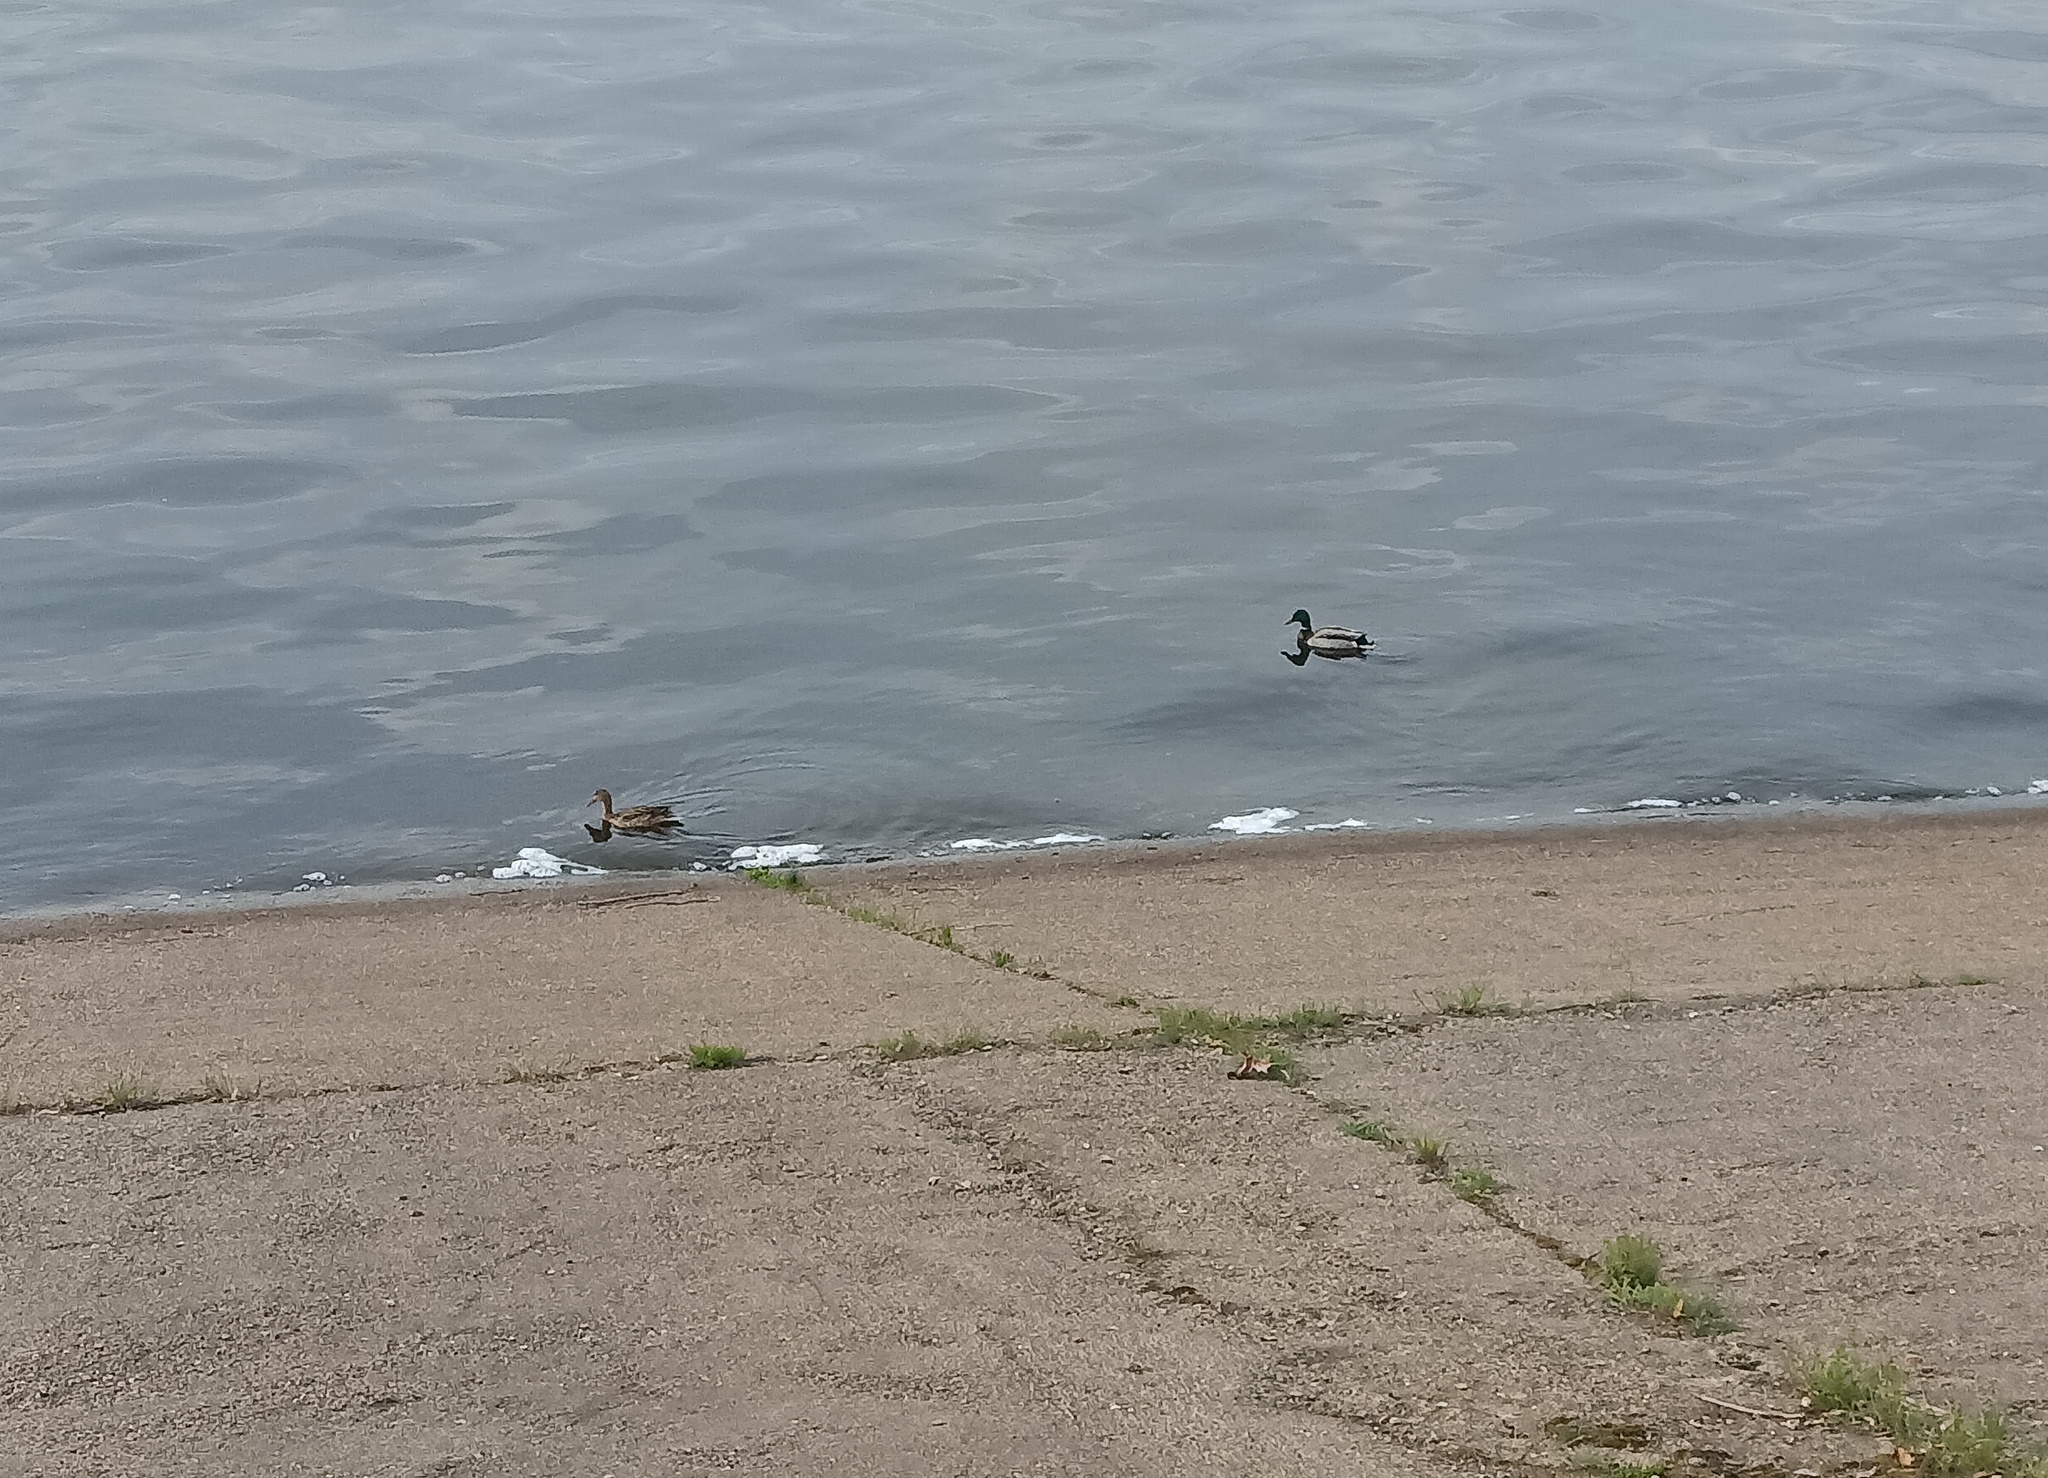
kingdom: Animalia
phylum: Chordata
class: Aves
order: Anseriformes
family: Anatidae
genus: Anas
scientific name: Anas platyrhynchos
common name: Mallard
